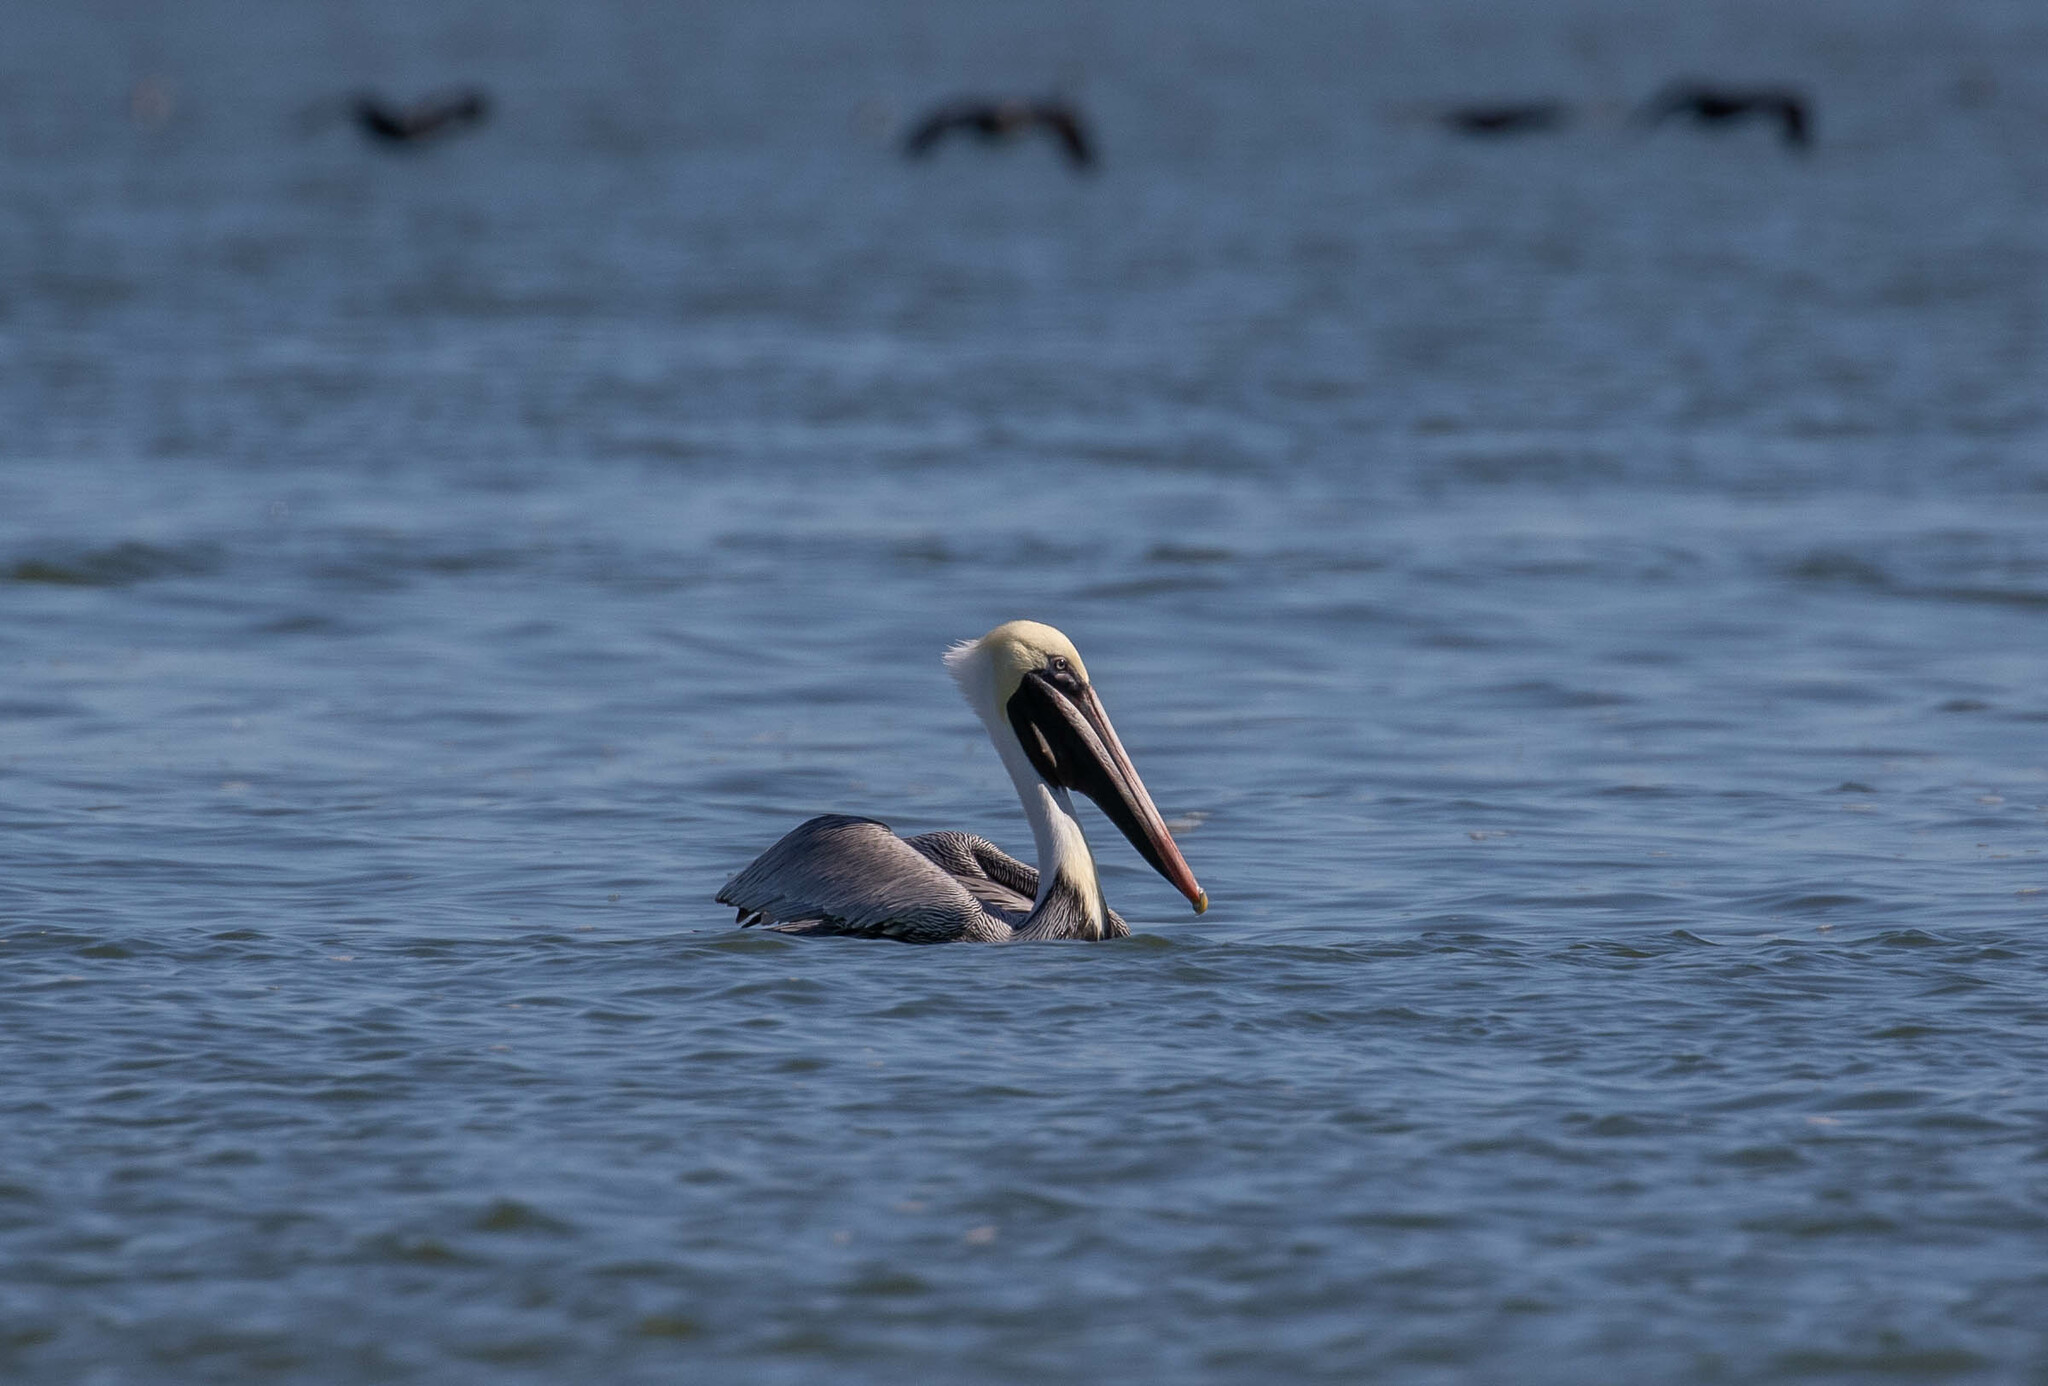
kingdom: Animalia
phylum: Chordata
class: Aves
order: Pelecaniformes
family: Pelecanidae
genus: Pelecanus
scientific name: Pelecanus occidentalis
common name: Brown pelican
